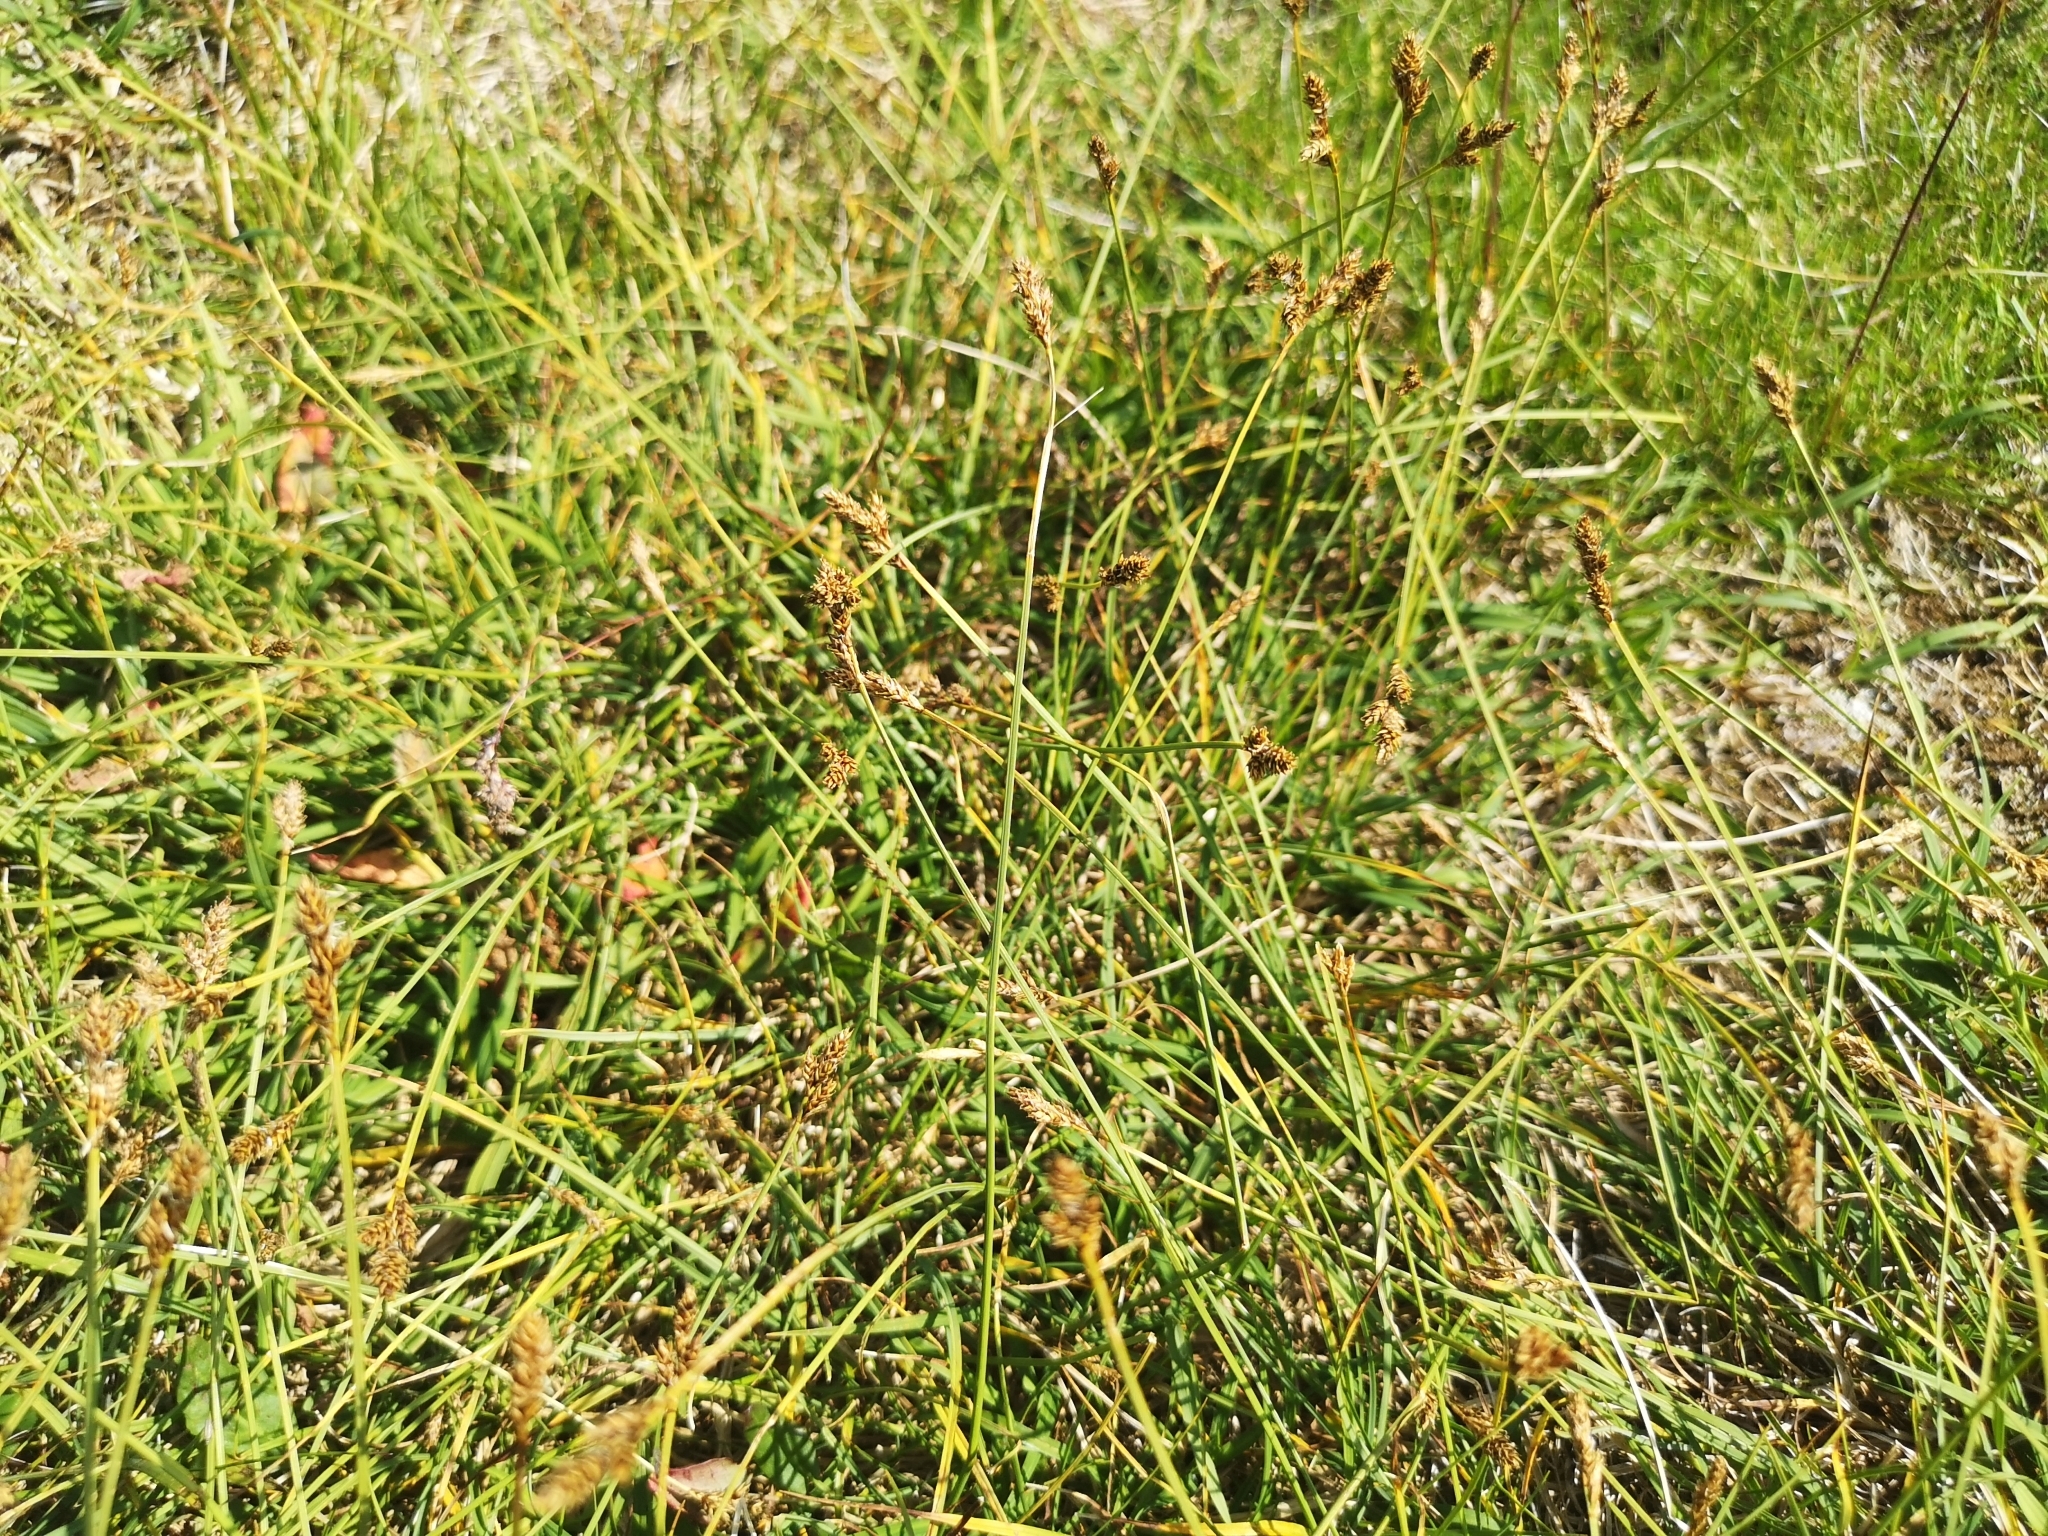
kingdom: Plantae
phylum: Tracheophyta
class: Liliopsida
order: Poales
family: Cyperaceae
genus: Carex
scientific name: Carex lachenalii
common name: Hare's-foot sedge
